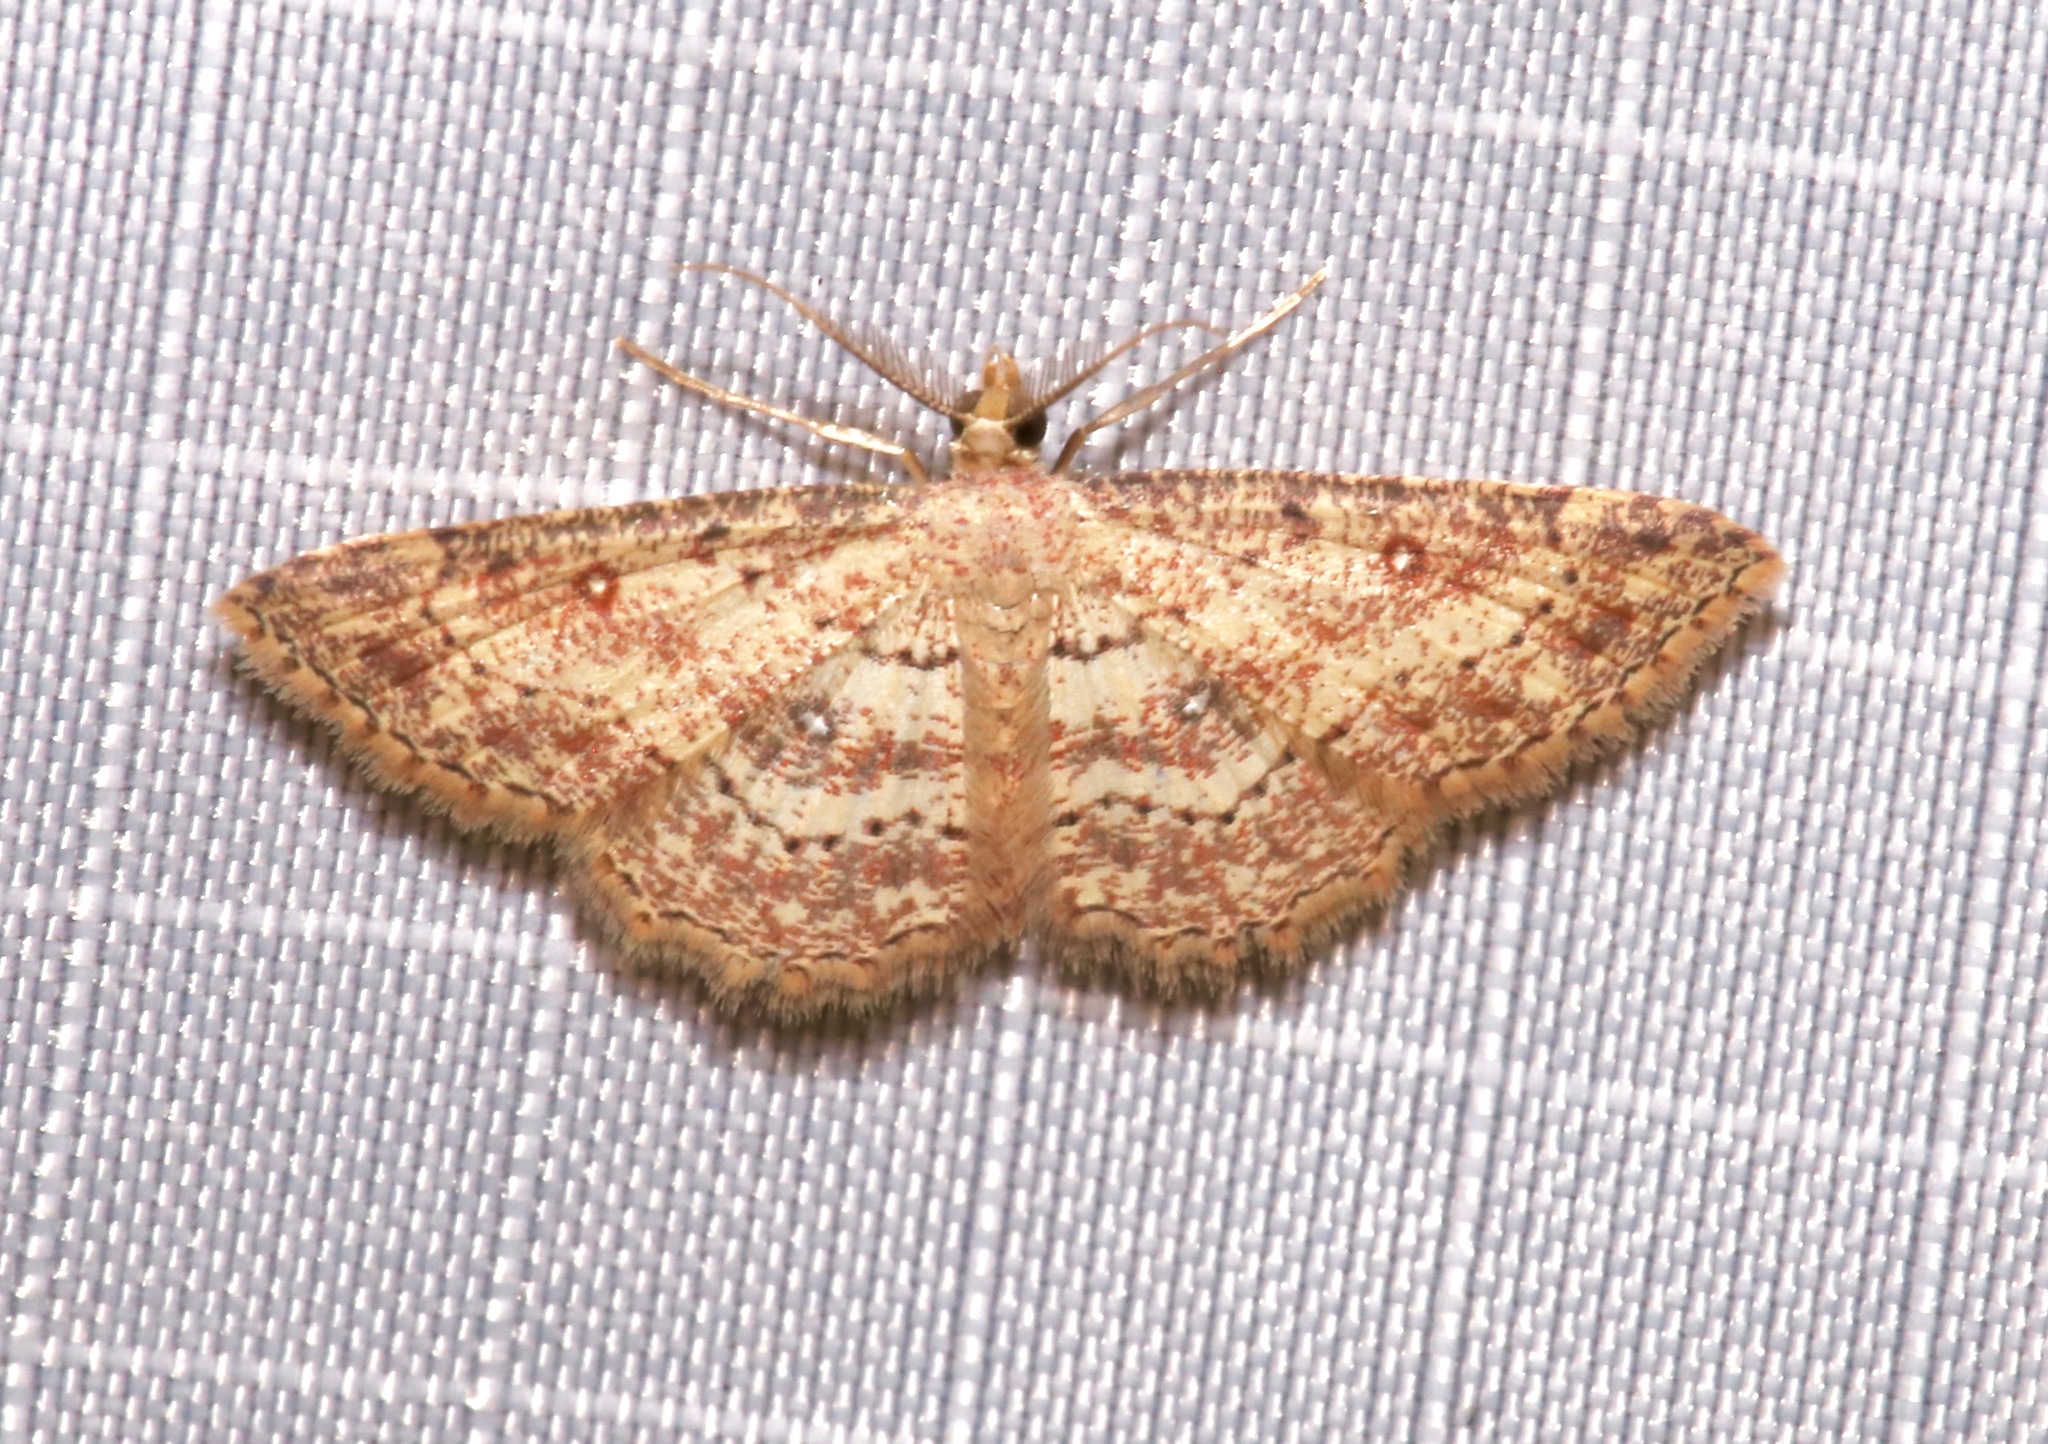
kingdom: Animalia
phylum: Arthropoda
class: Insecta
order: Lepidoptera
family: Geometridae
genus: Cyclophora
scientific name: Cyclophora nanaria
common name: Cankerworm
